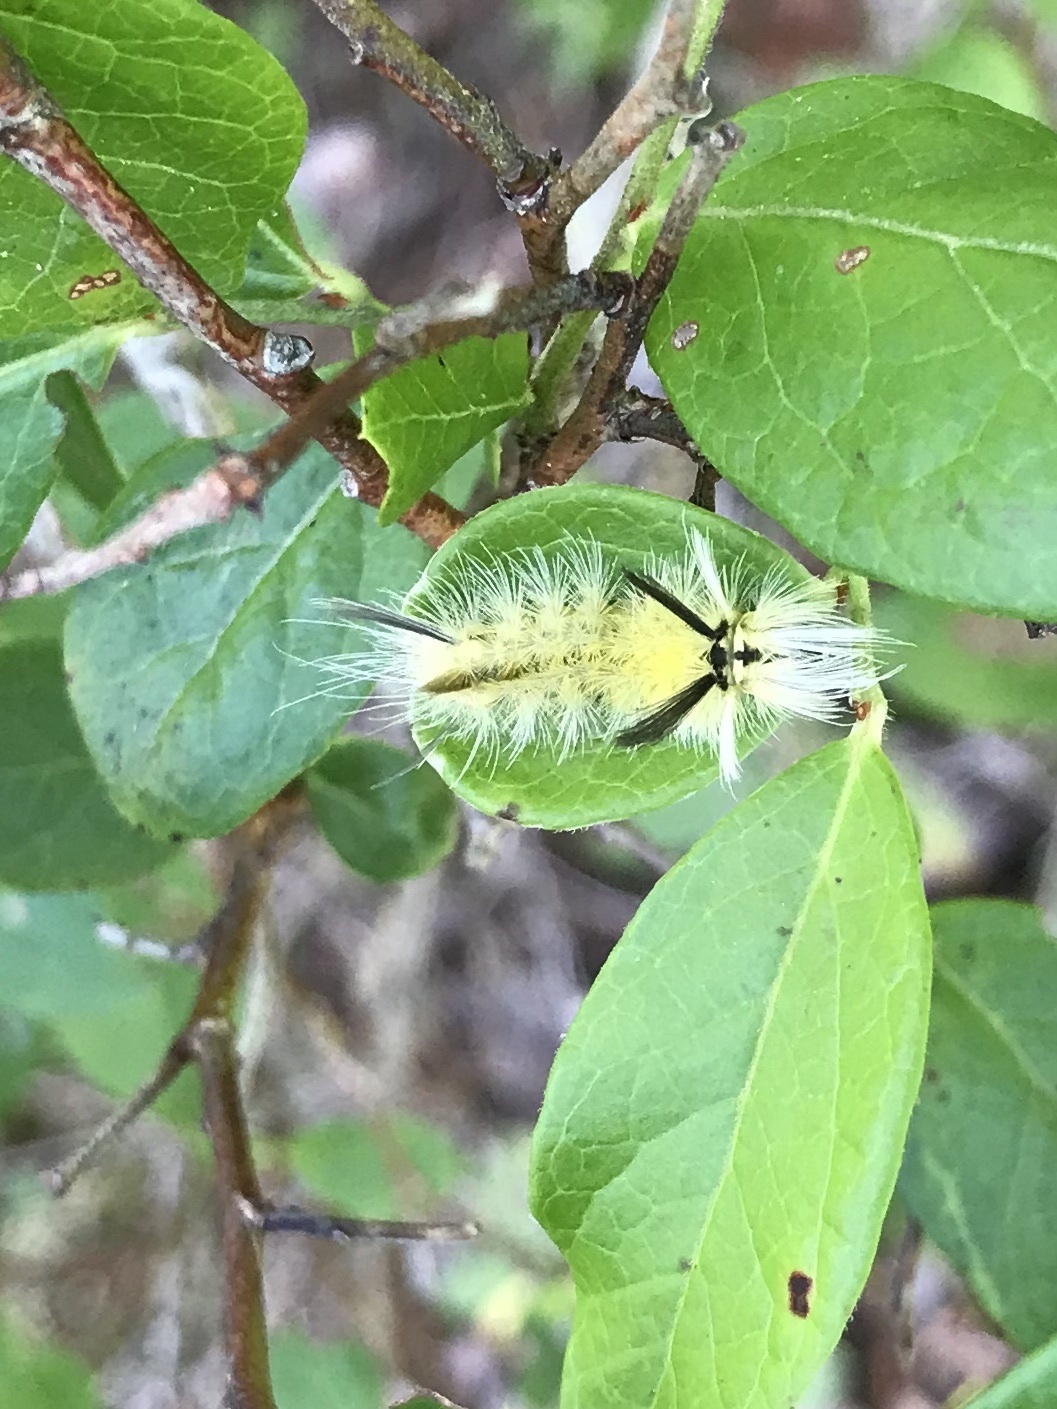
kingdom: Animalia
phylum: Arthropoda
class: Insecta
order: Lepidoptera
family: Erebidae
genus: Halysidota
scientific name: Halysidota tessellaris
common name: Banded tussock moth
